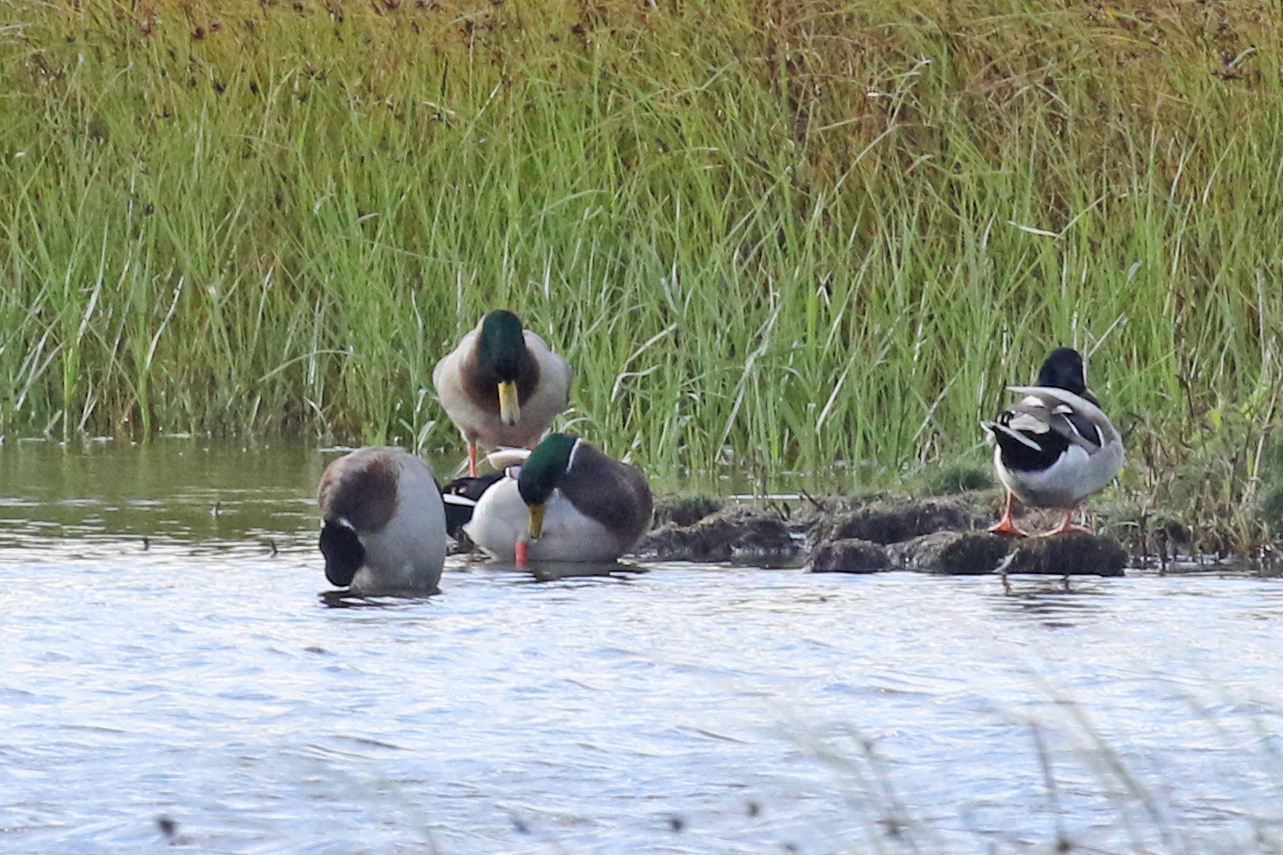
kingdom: Animalia
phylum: Chordata
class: Aves
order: Anseriformes
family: Anatidae
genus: Anas
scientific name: Anas platyrhynchos
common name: Mallard
